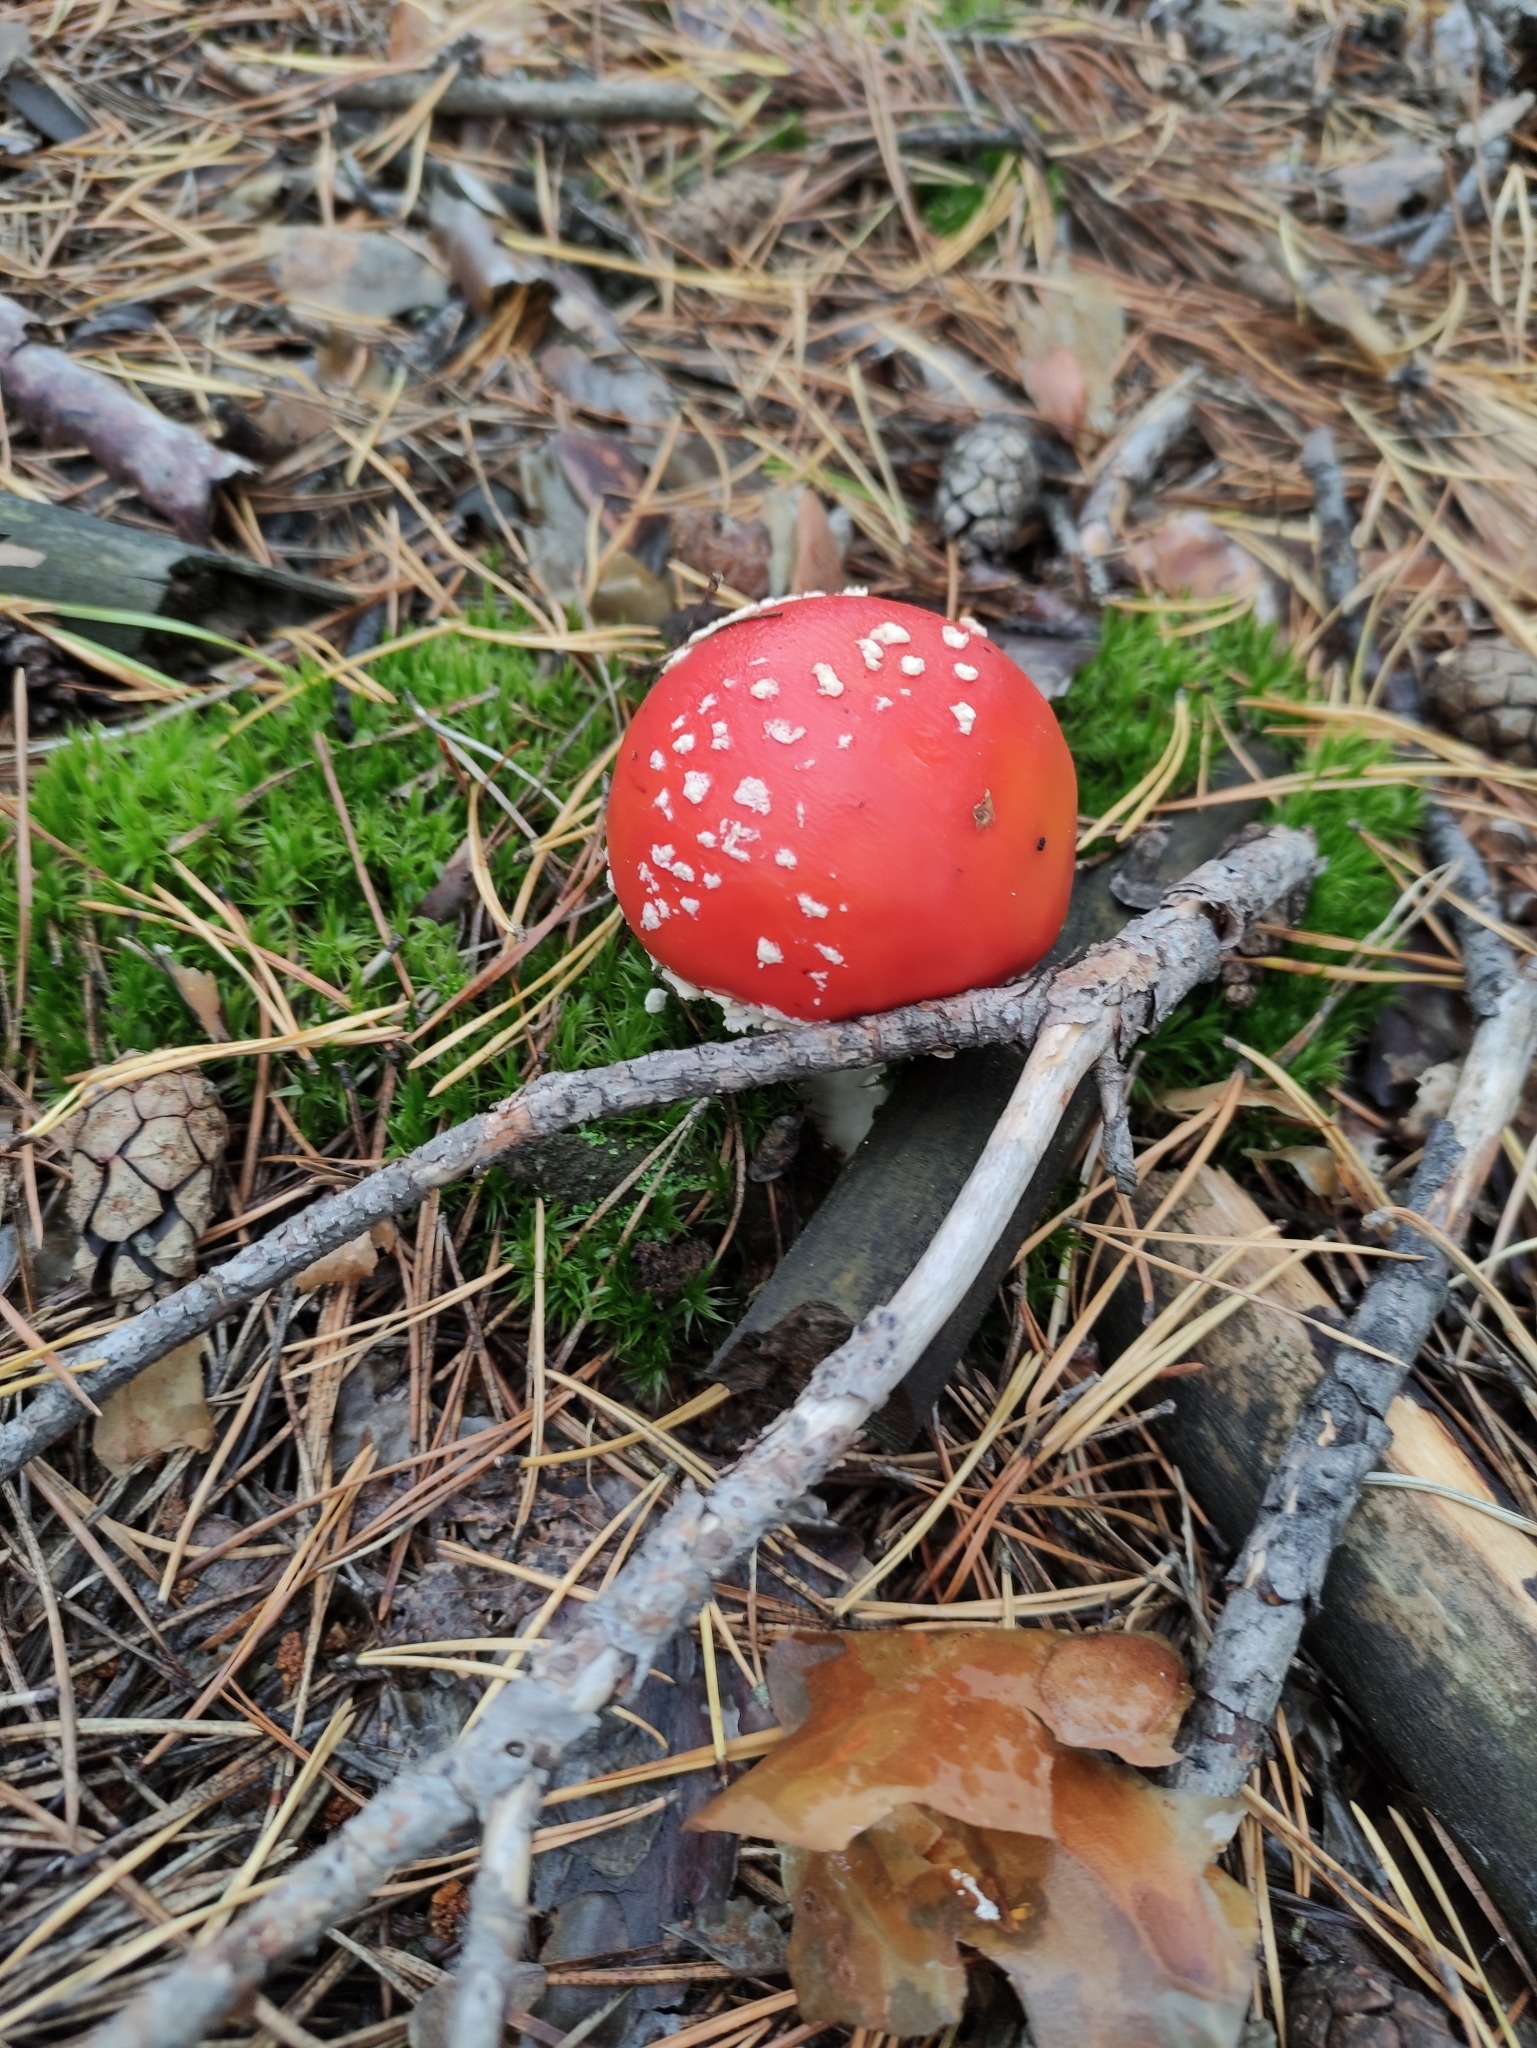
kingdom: Fungi
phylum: Basidiomycota
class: Agaricomycetes
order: Agaricales
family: Amanitaceae
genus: Amanita
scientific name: Amanita muscaria
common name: Fly agaric
